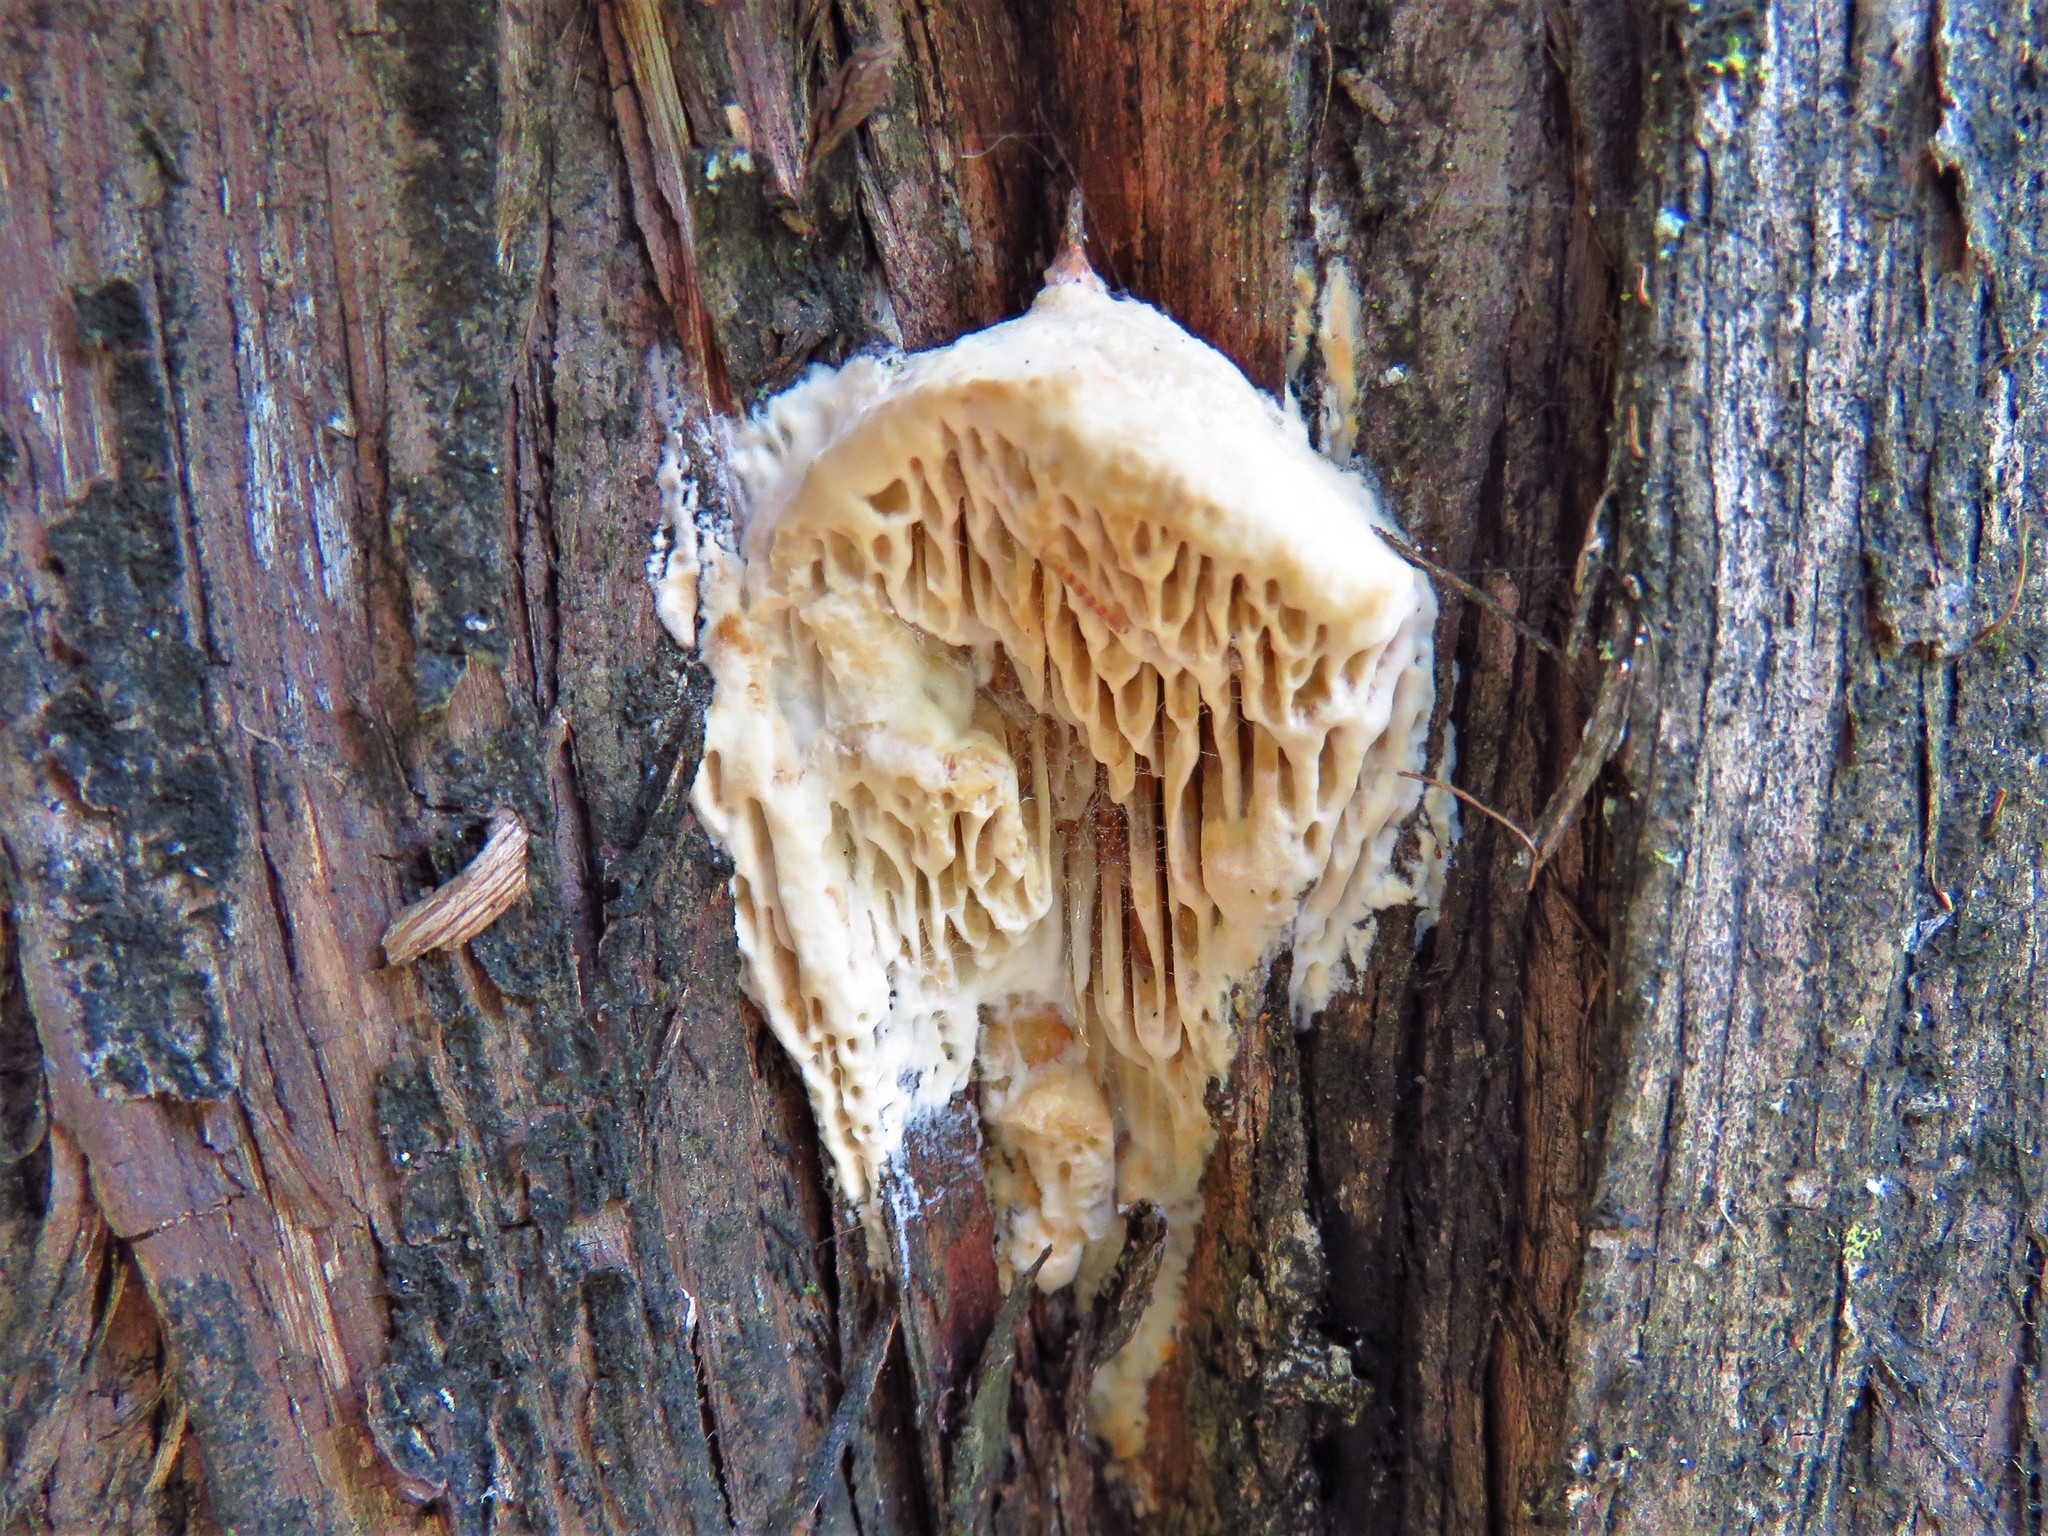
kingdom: Fungi
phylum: Basidiomycota
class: Agaricomycetes
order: Polyporales
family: Fomitopsidaceae
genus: Fomitopsis
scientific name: Fomitopsis
